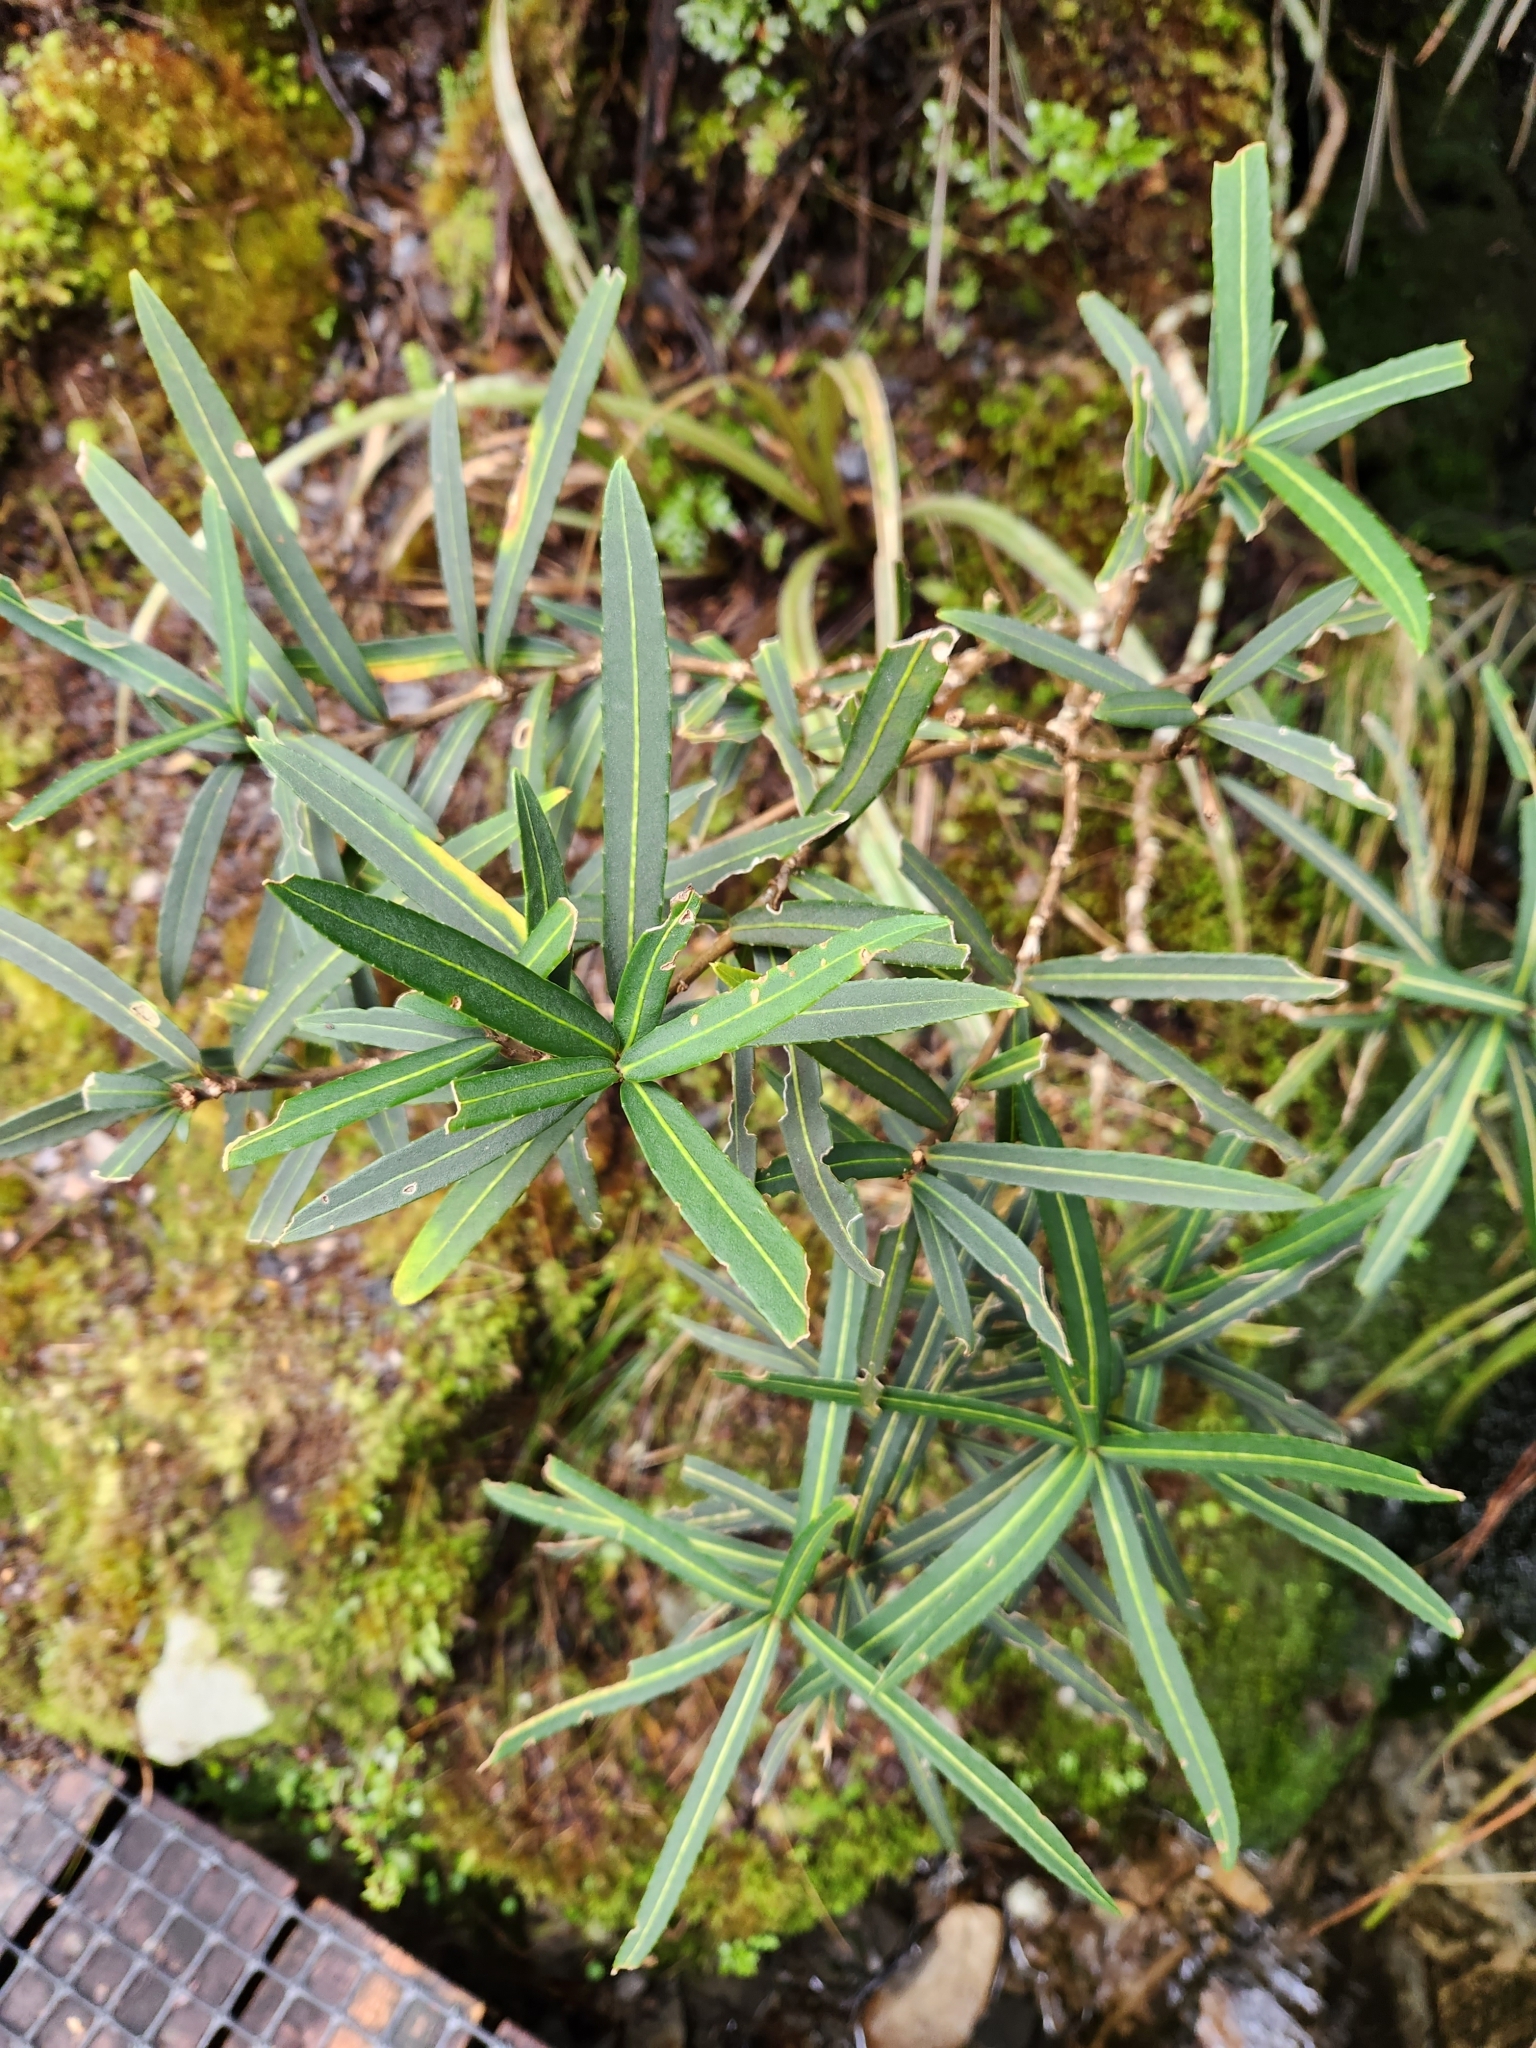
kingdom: Plantae
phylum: Tracheophyta
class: Magnoliopsida
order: Apiales
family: Araliaceae
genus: Pseudopanax
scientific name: Pseudopanax linearis
